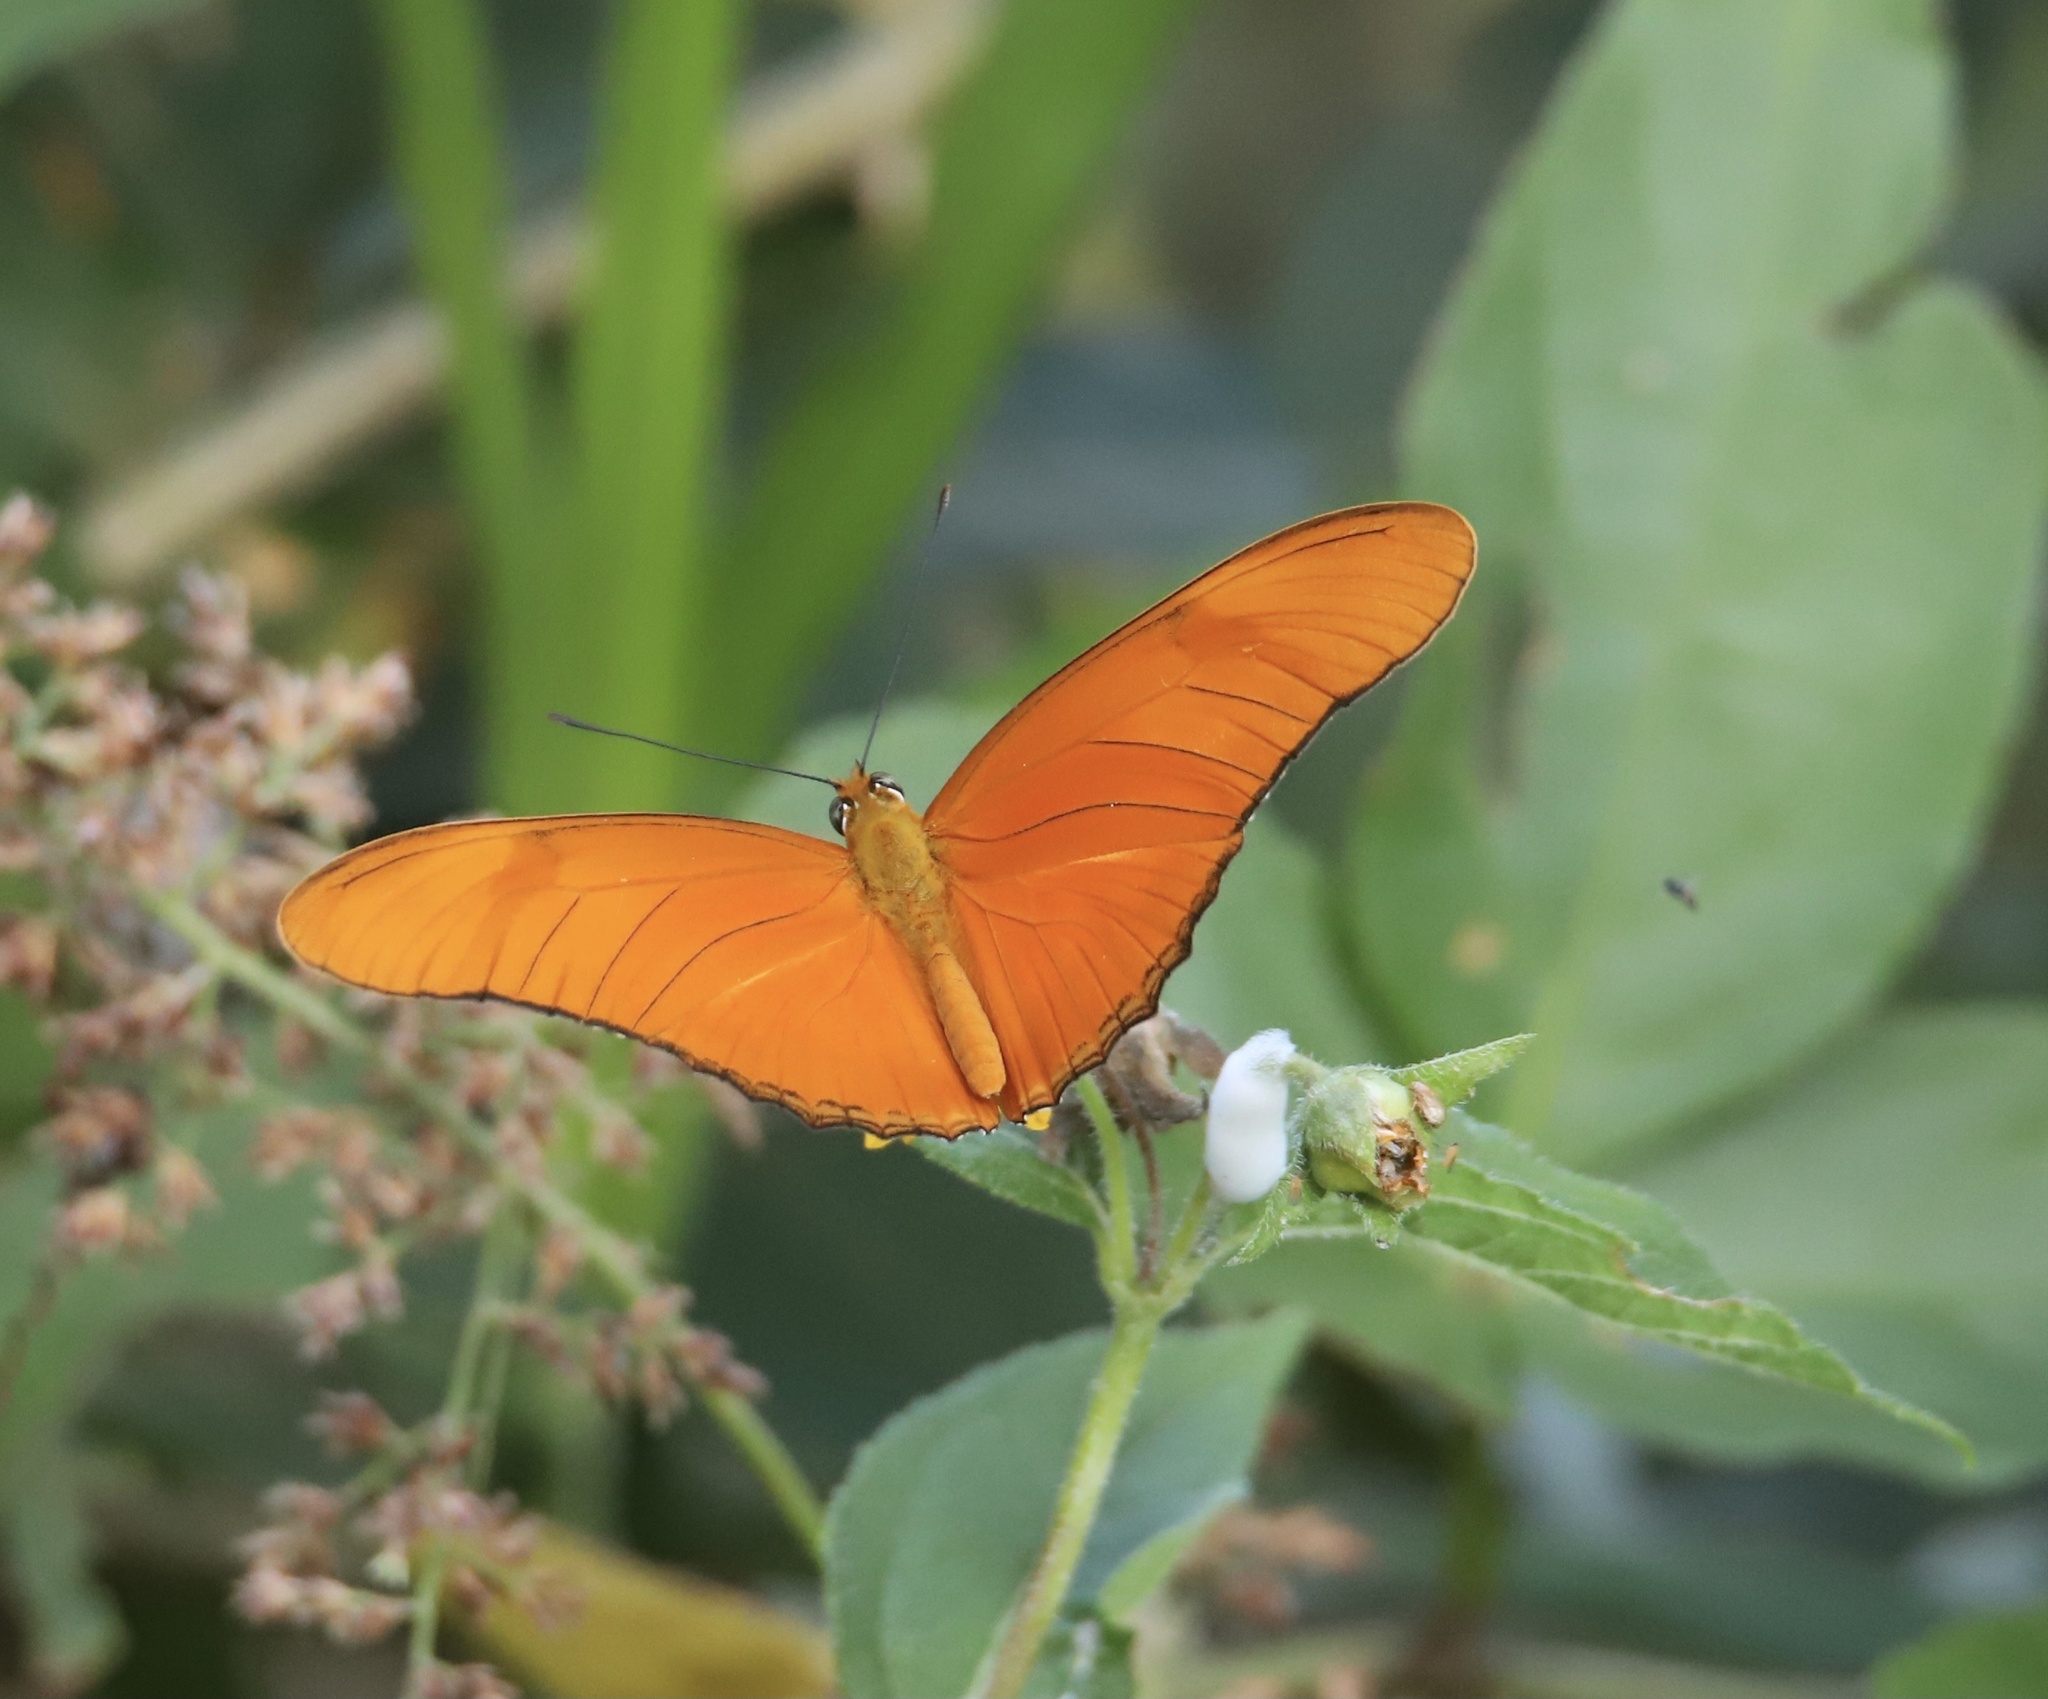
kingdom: Animalia
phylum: Arthropoda
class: Insecta
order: Lepidoptera
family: Nymphalidae
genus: Dryas
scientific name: Dryas iulia
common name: Flambeau
